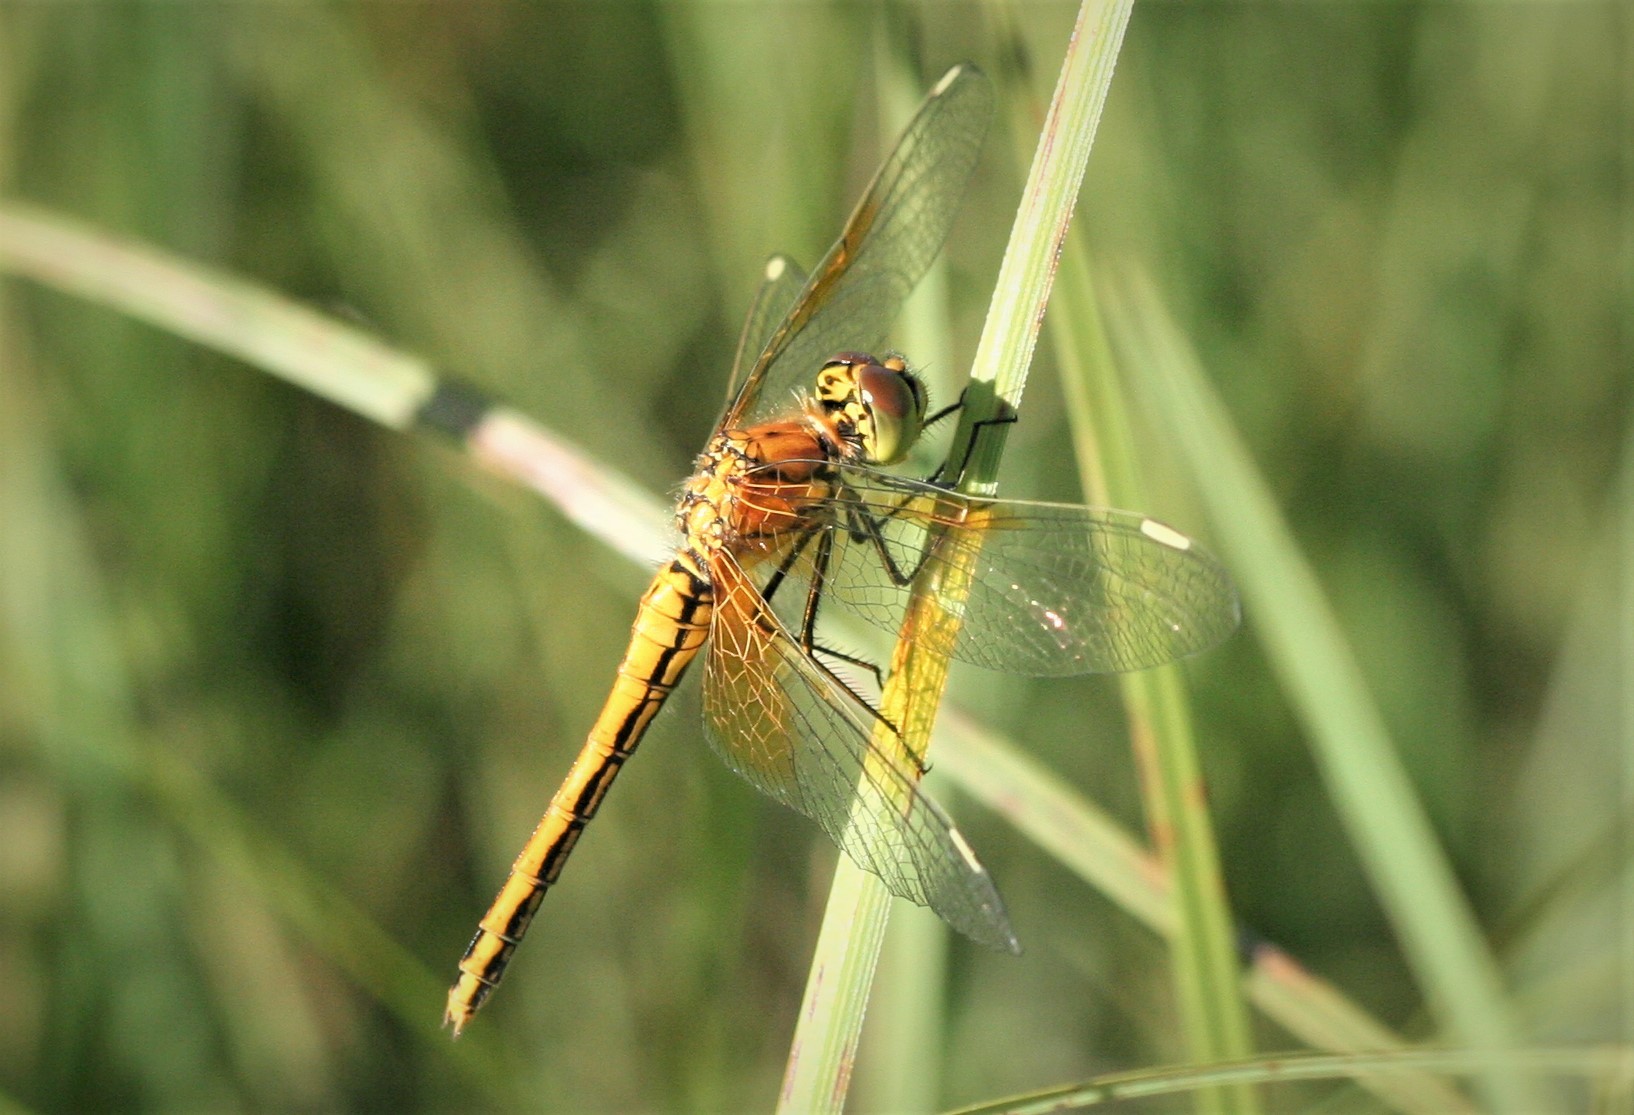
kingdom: Animalia
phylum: Arthropoda
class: Insecta
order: Odonata
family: Libellulidae
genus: Sympetrum
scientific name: Sympetrum flaveolum
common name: Yellow-winged darter
